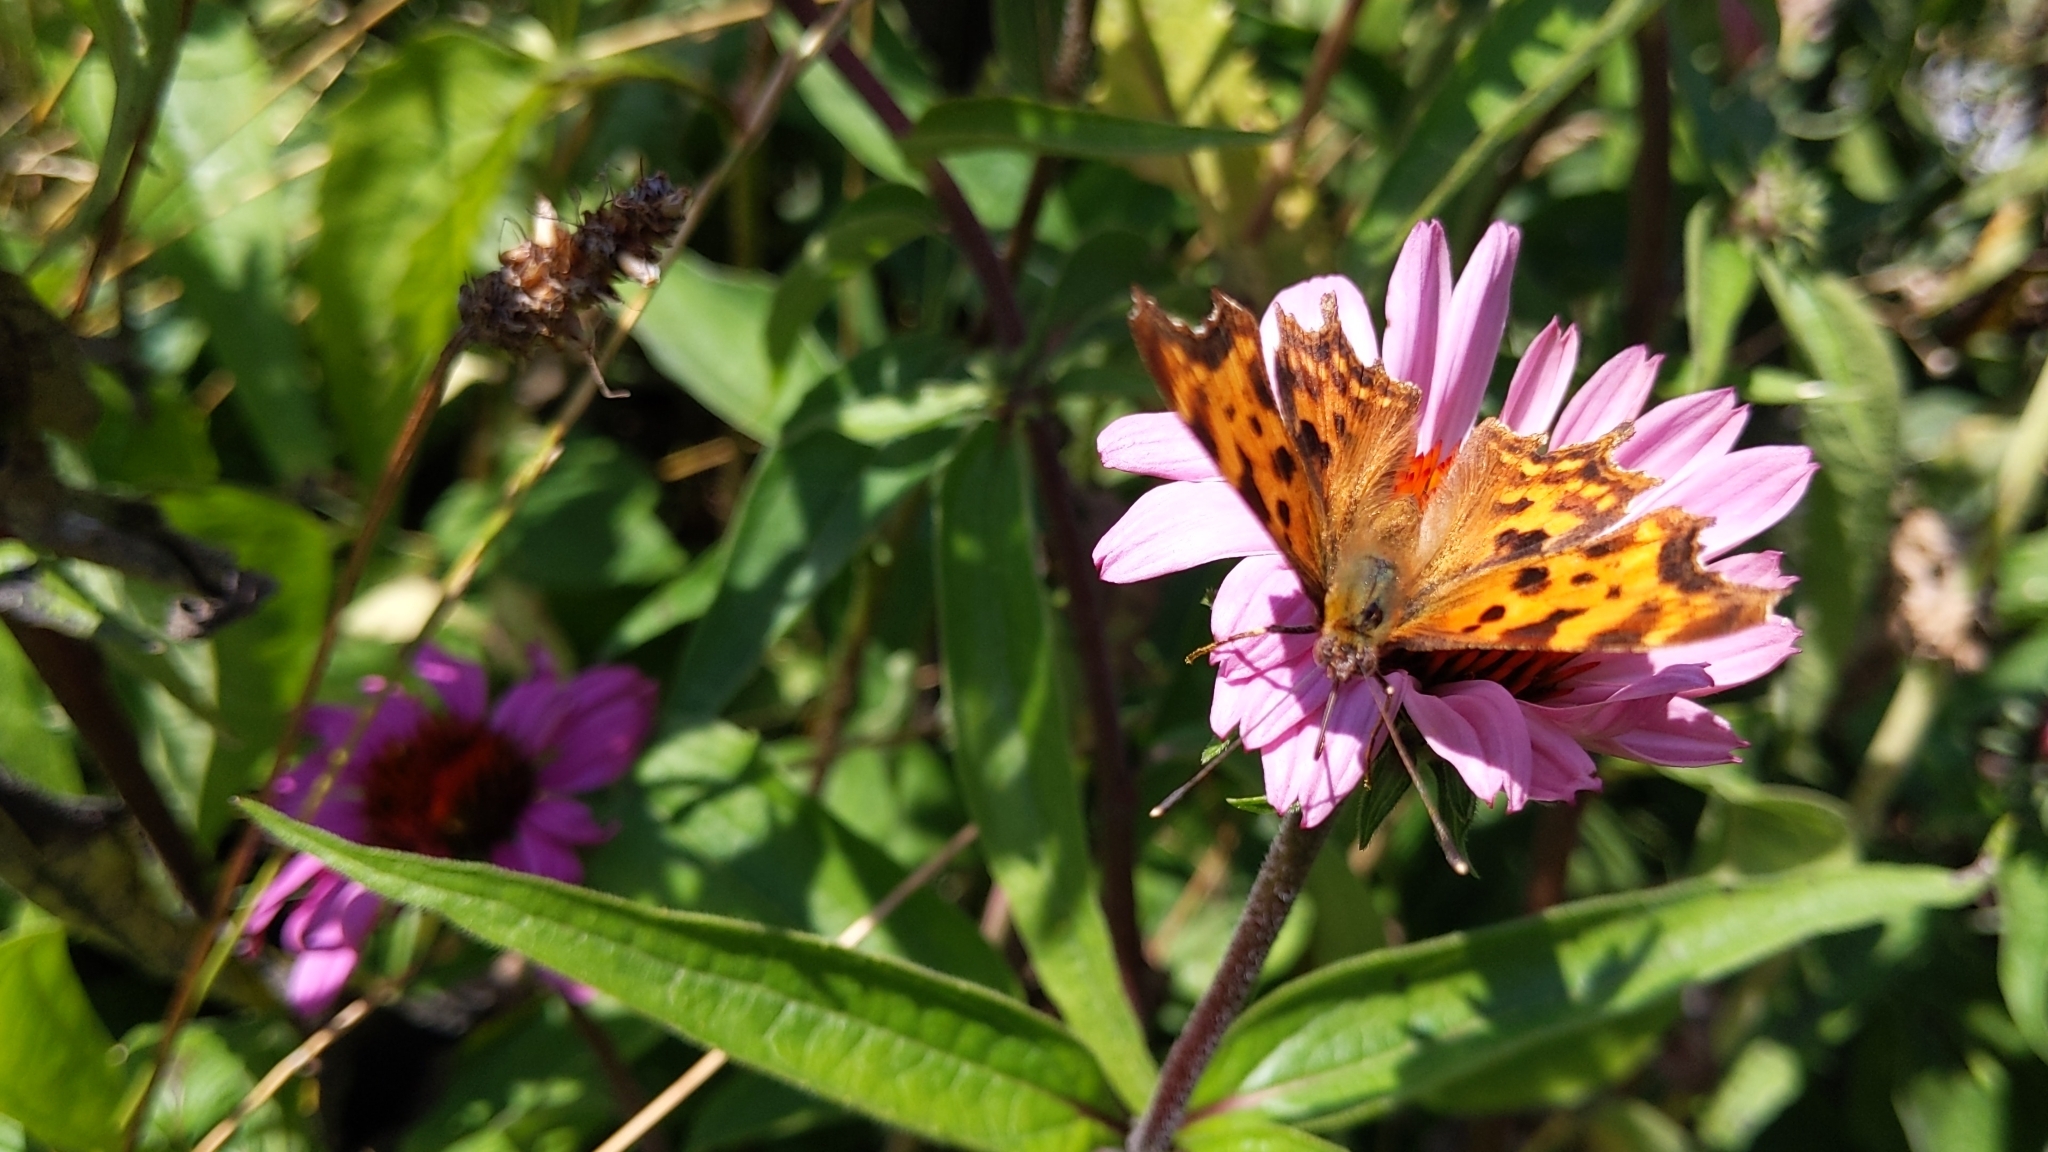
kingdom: Animalia
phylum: Arthropoda
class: Insecta
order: Lepidoptera
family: Nymphalidae
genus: Polygonia
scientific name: Polygonia c-album
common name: Comma
